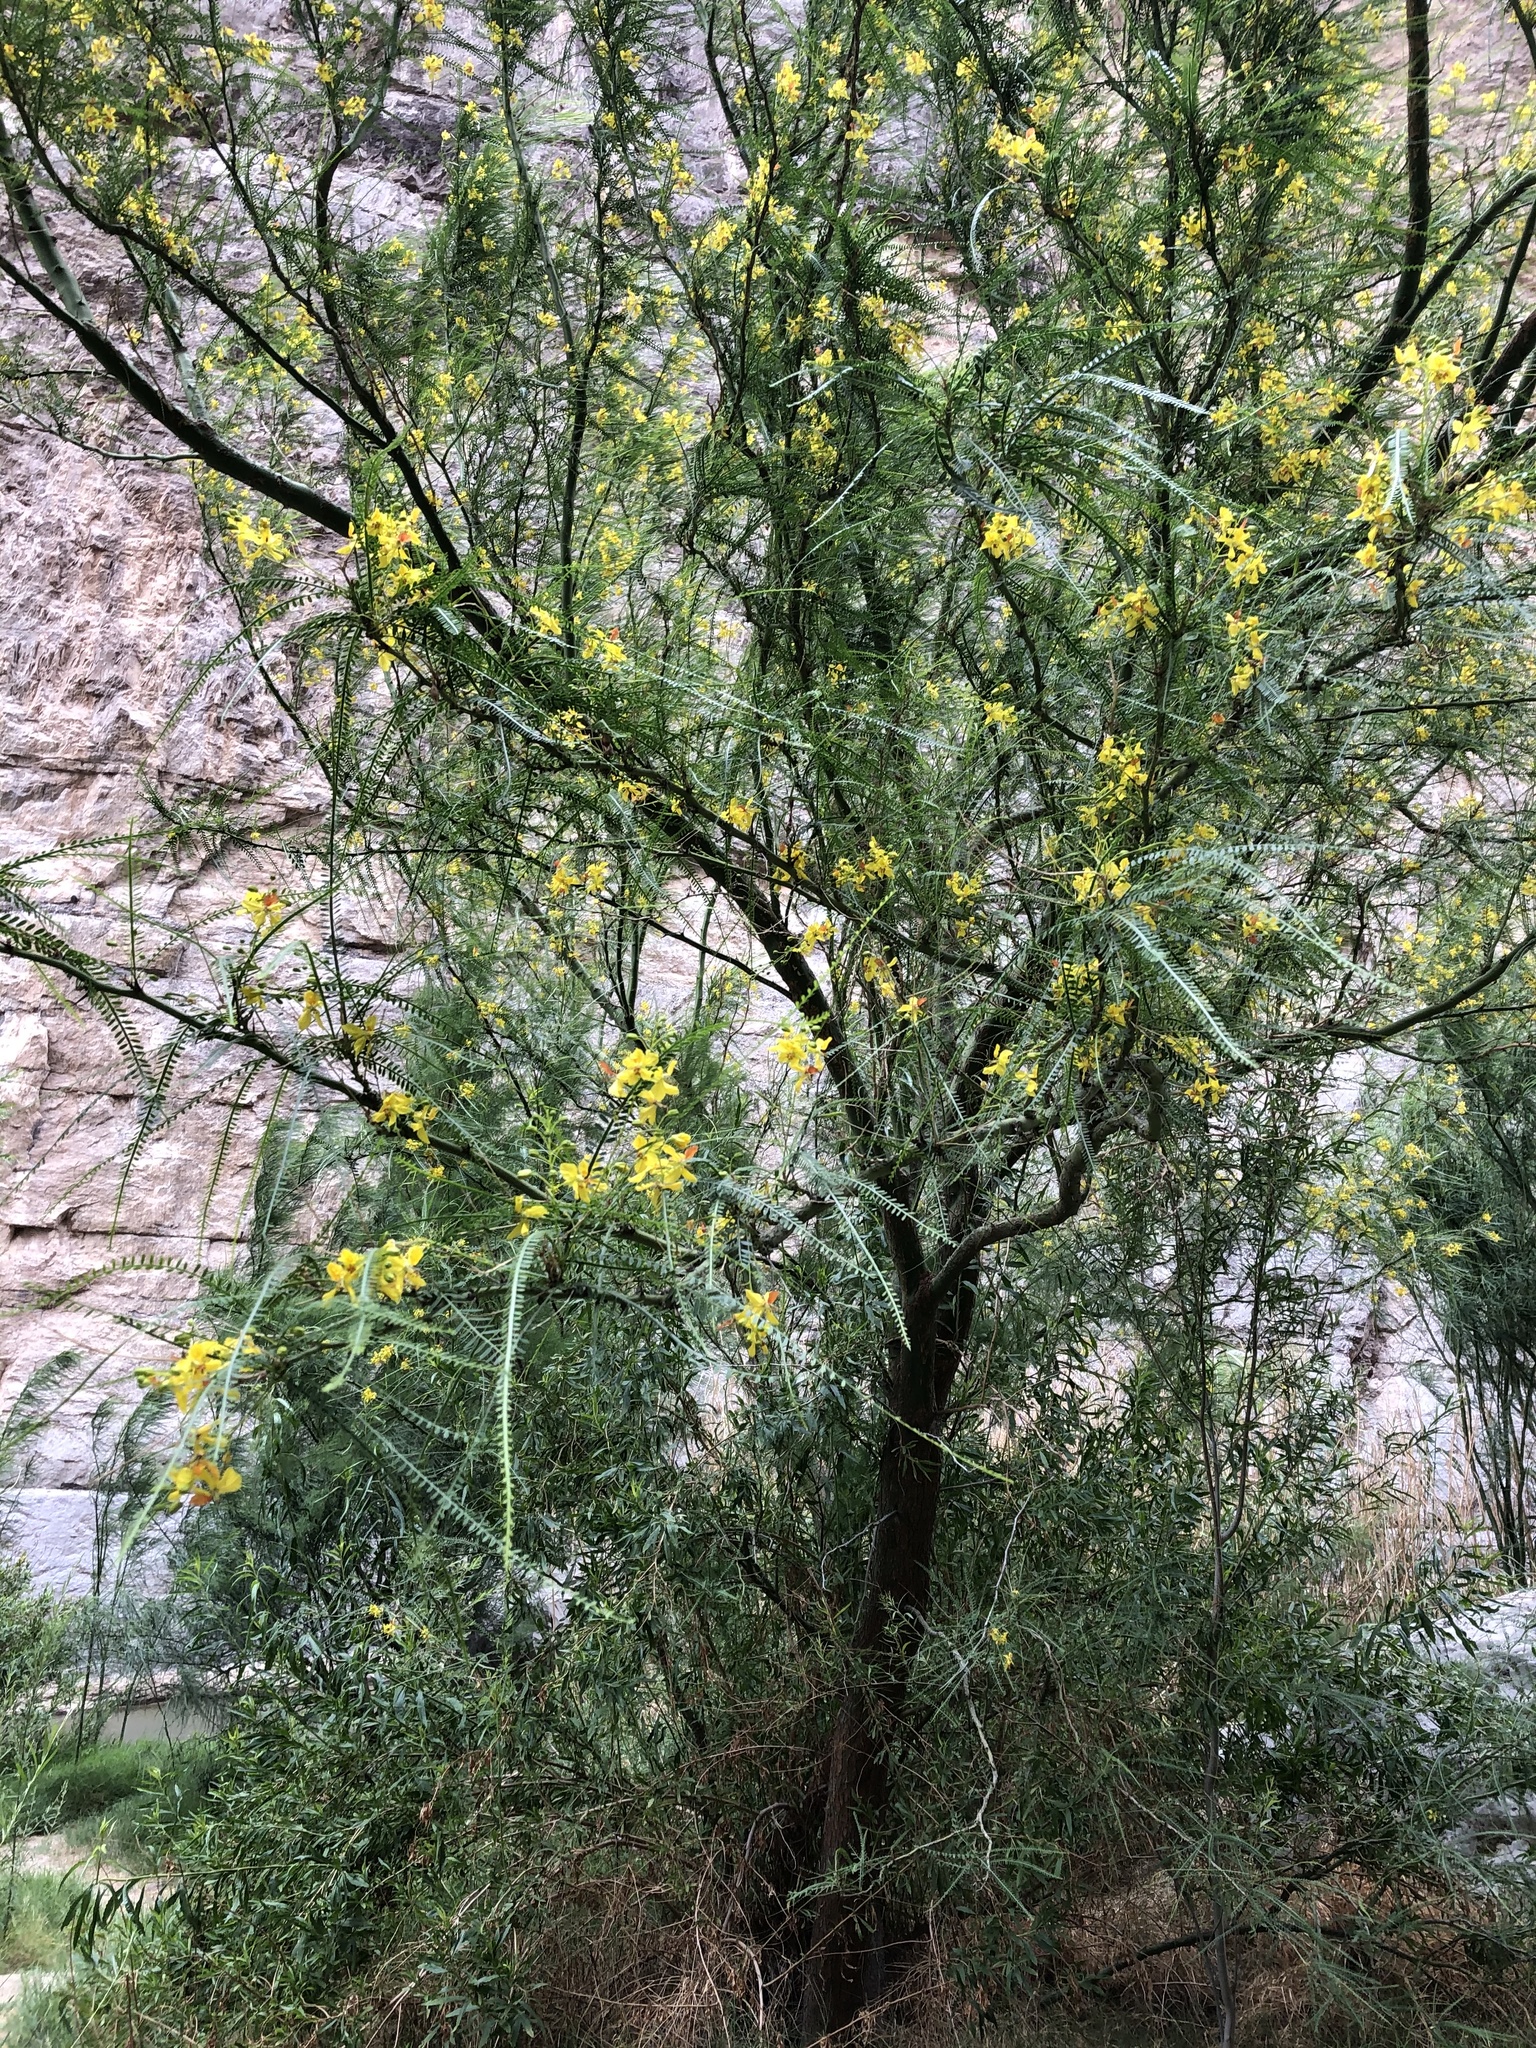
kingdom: Plantae
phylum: Tracheophyta
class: Magnoliopsida
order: Fabales
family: Fabaceae
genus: Parkinsonia
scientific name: Parkinsonia aculeata
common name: Jerusalem thorn
